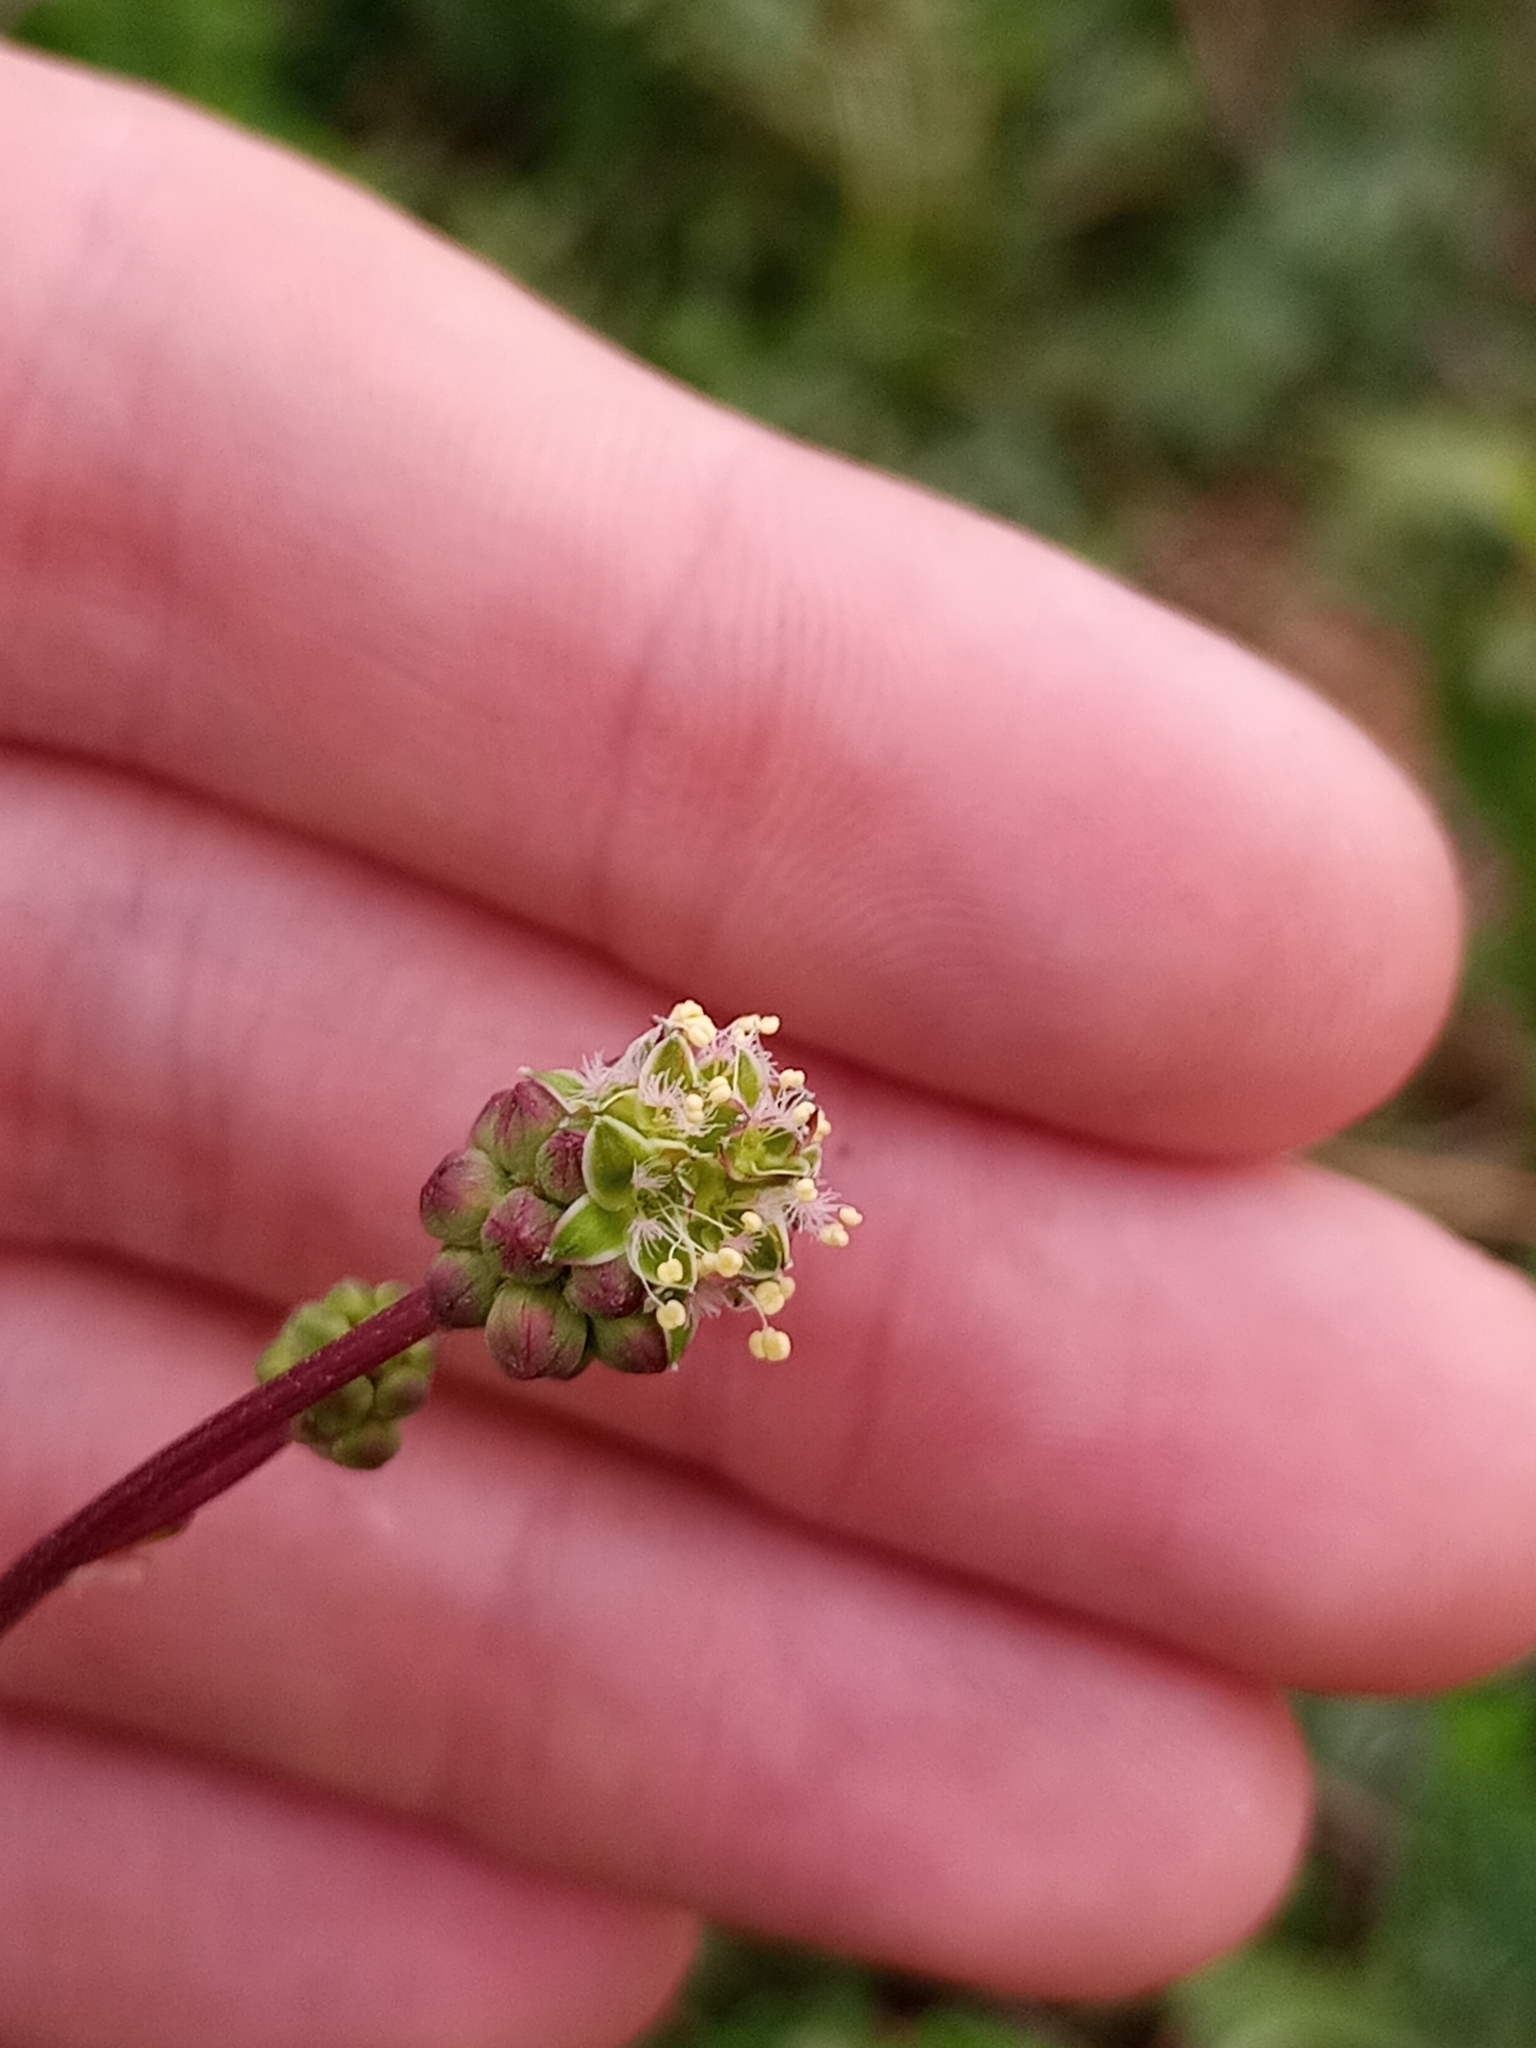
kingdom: Plantae
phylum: Tracheophyta
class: Magnoliopsida
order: Rosales
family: Rosaceae
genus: Poterium
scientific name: Poterium sanguisorba
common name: Salad burnet
